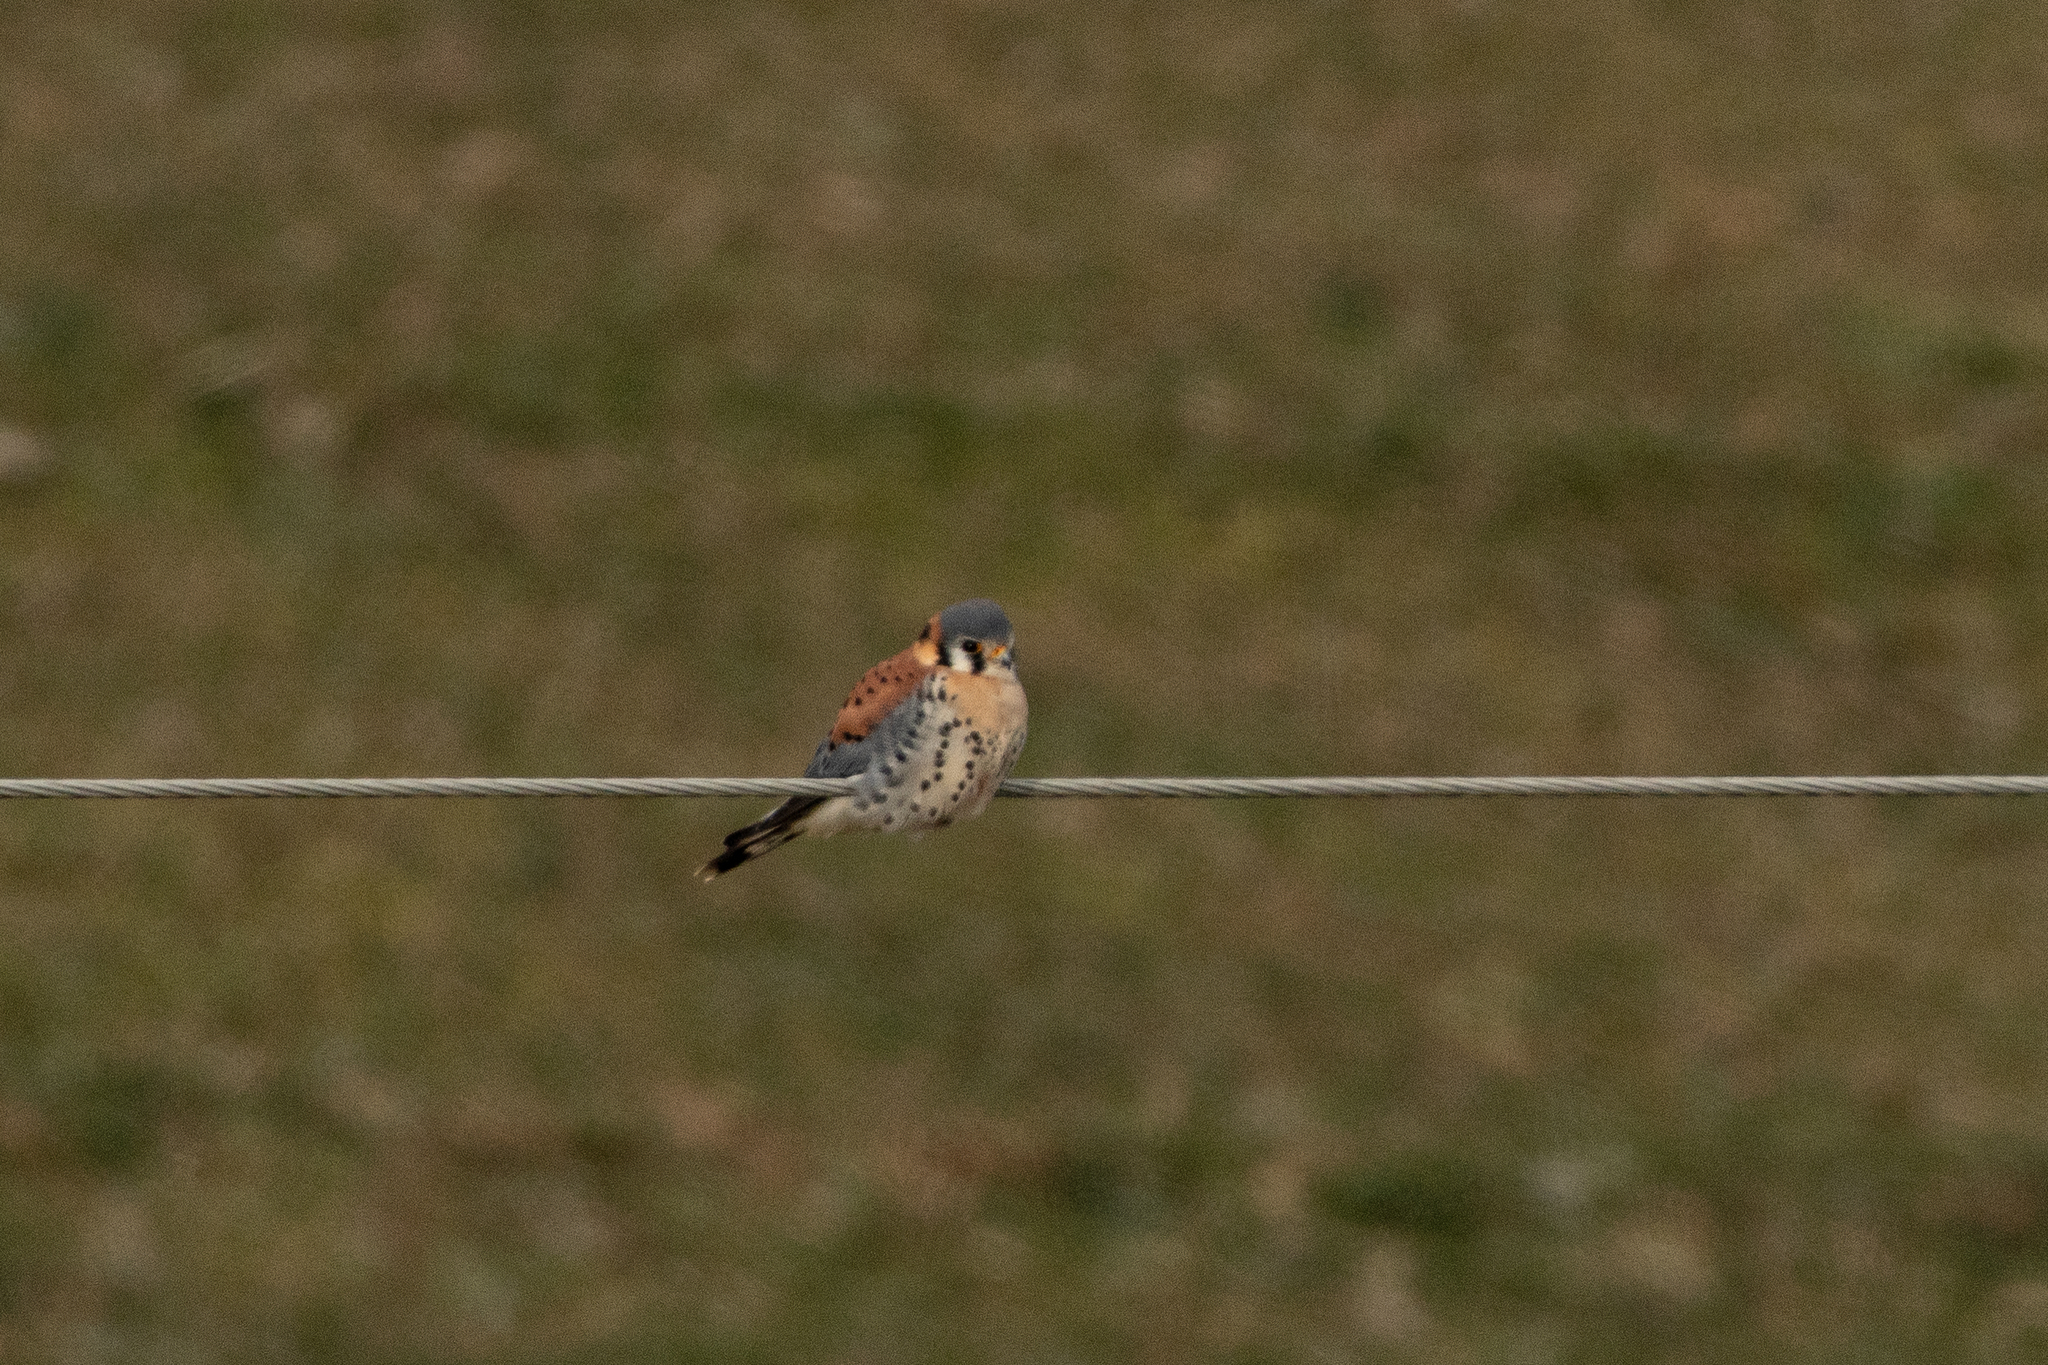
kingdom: Animalia
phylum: Chordata
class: Aves
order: Falconiformes
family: Falconidae
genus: Falco
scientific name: Falco sparverius
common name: American kestrel
